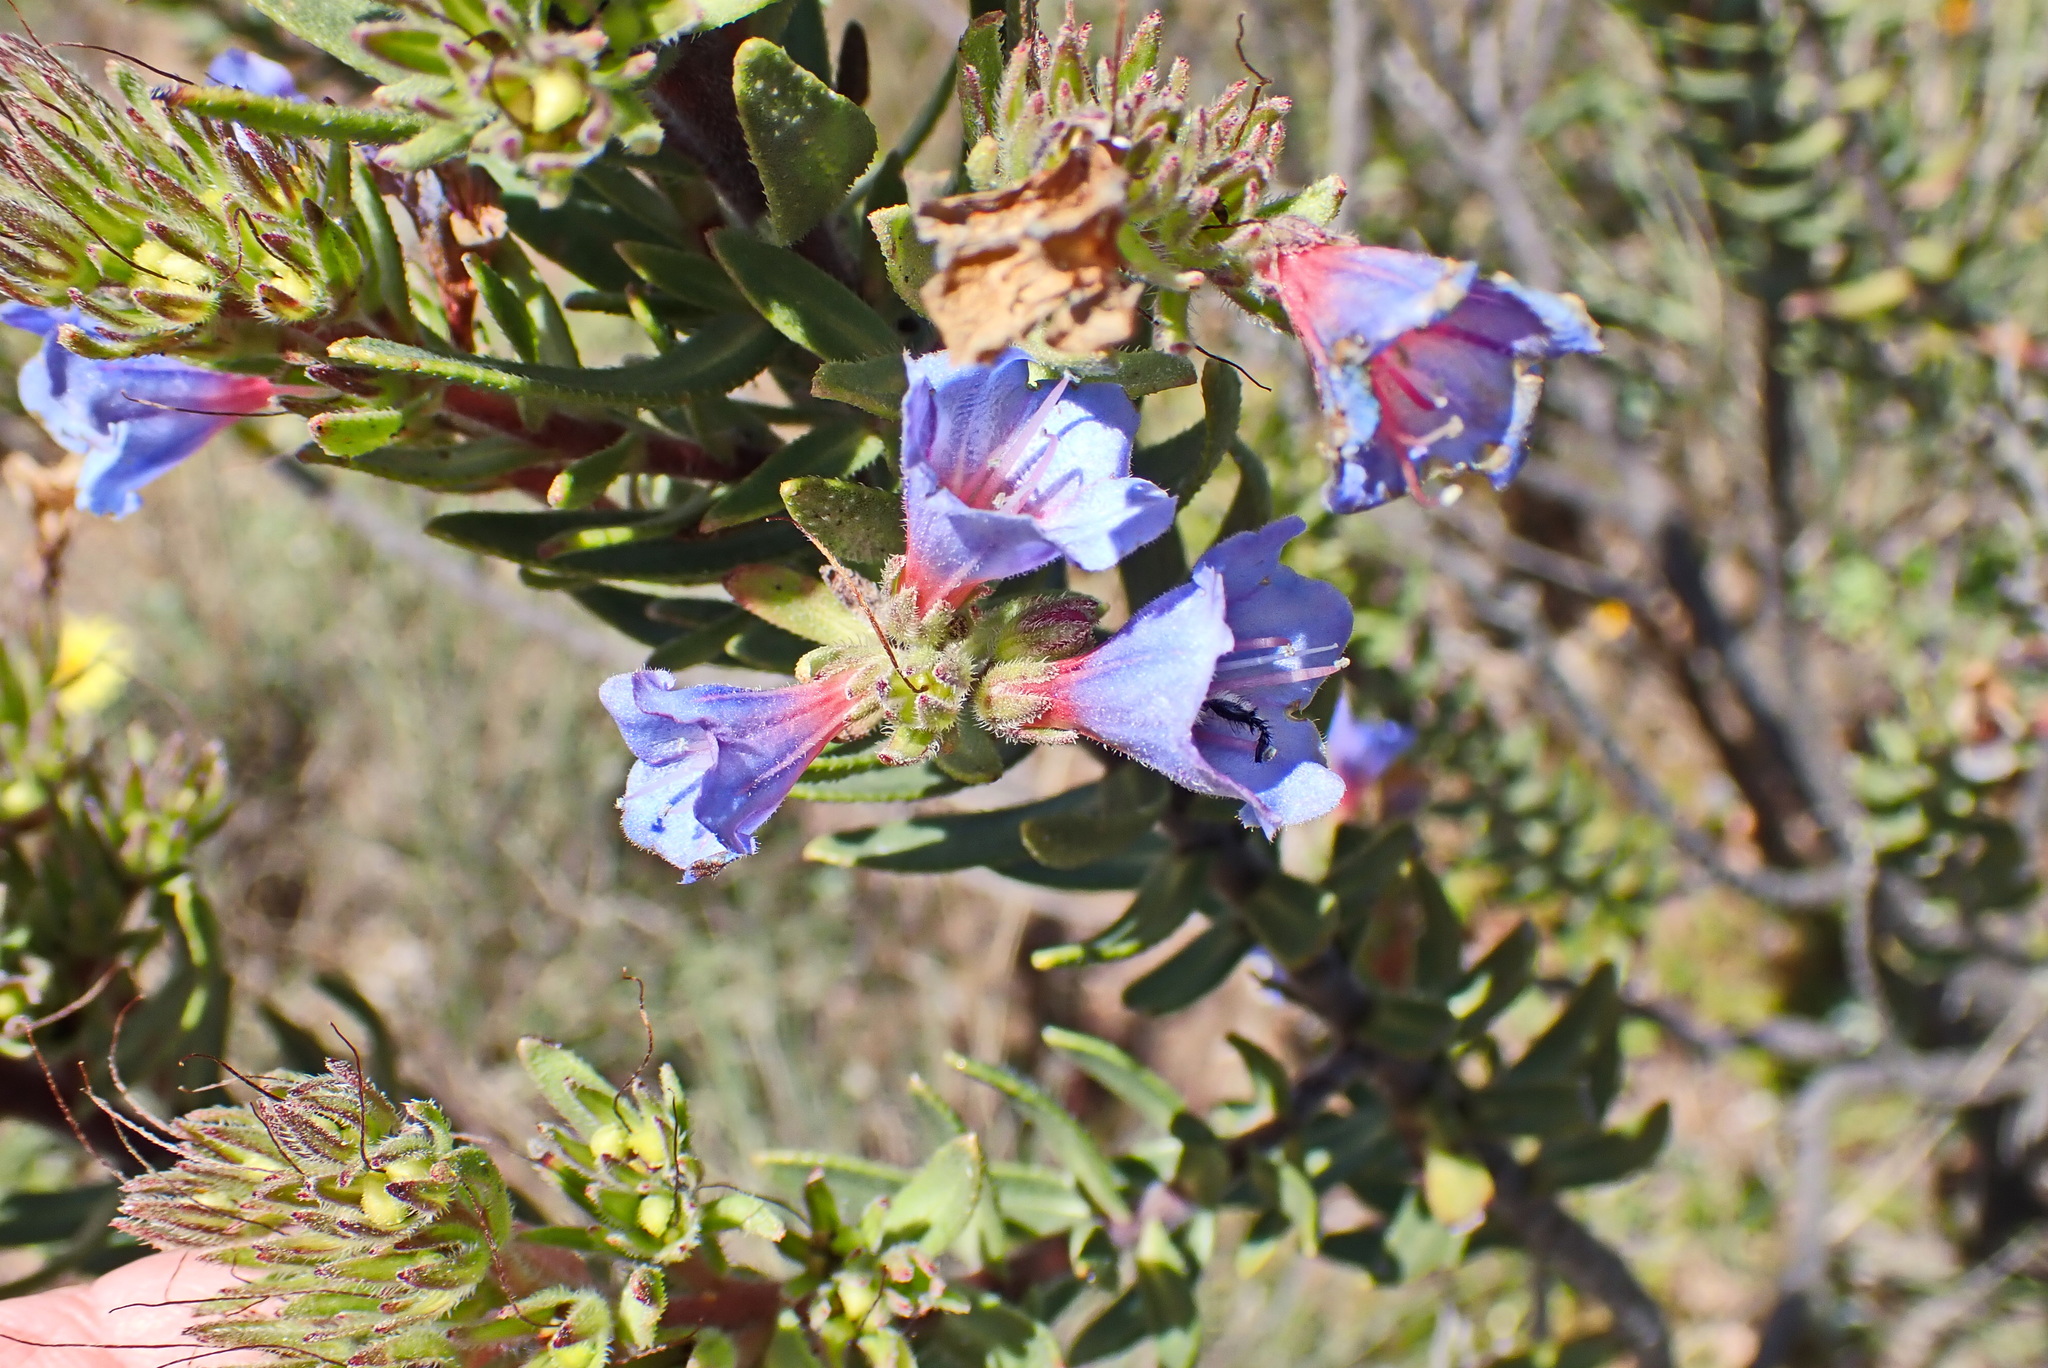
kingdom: Plantae
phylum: Tracheophyta
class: Magnoliopsida
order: Boraginales
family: Boraginaceae
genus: Lobostemon
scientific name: Lobostemon fruticosus
